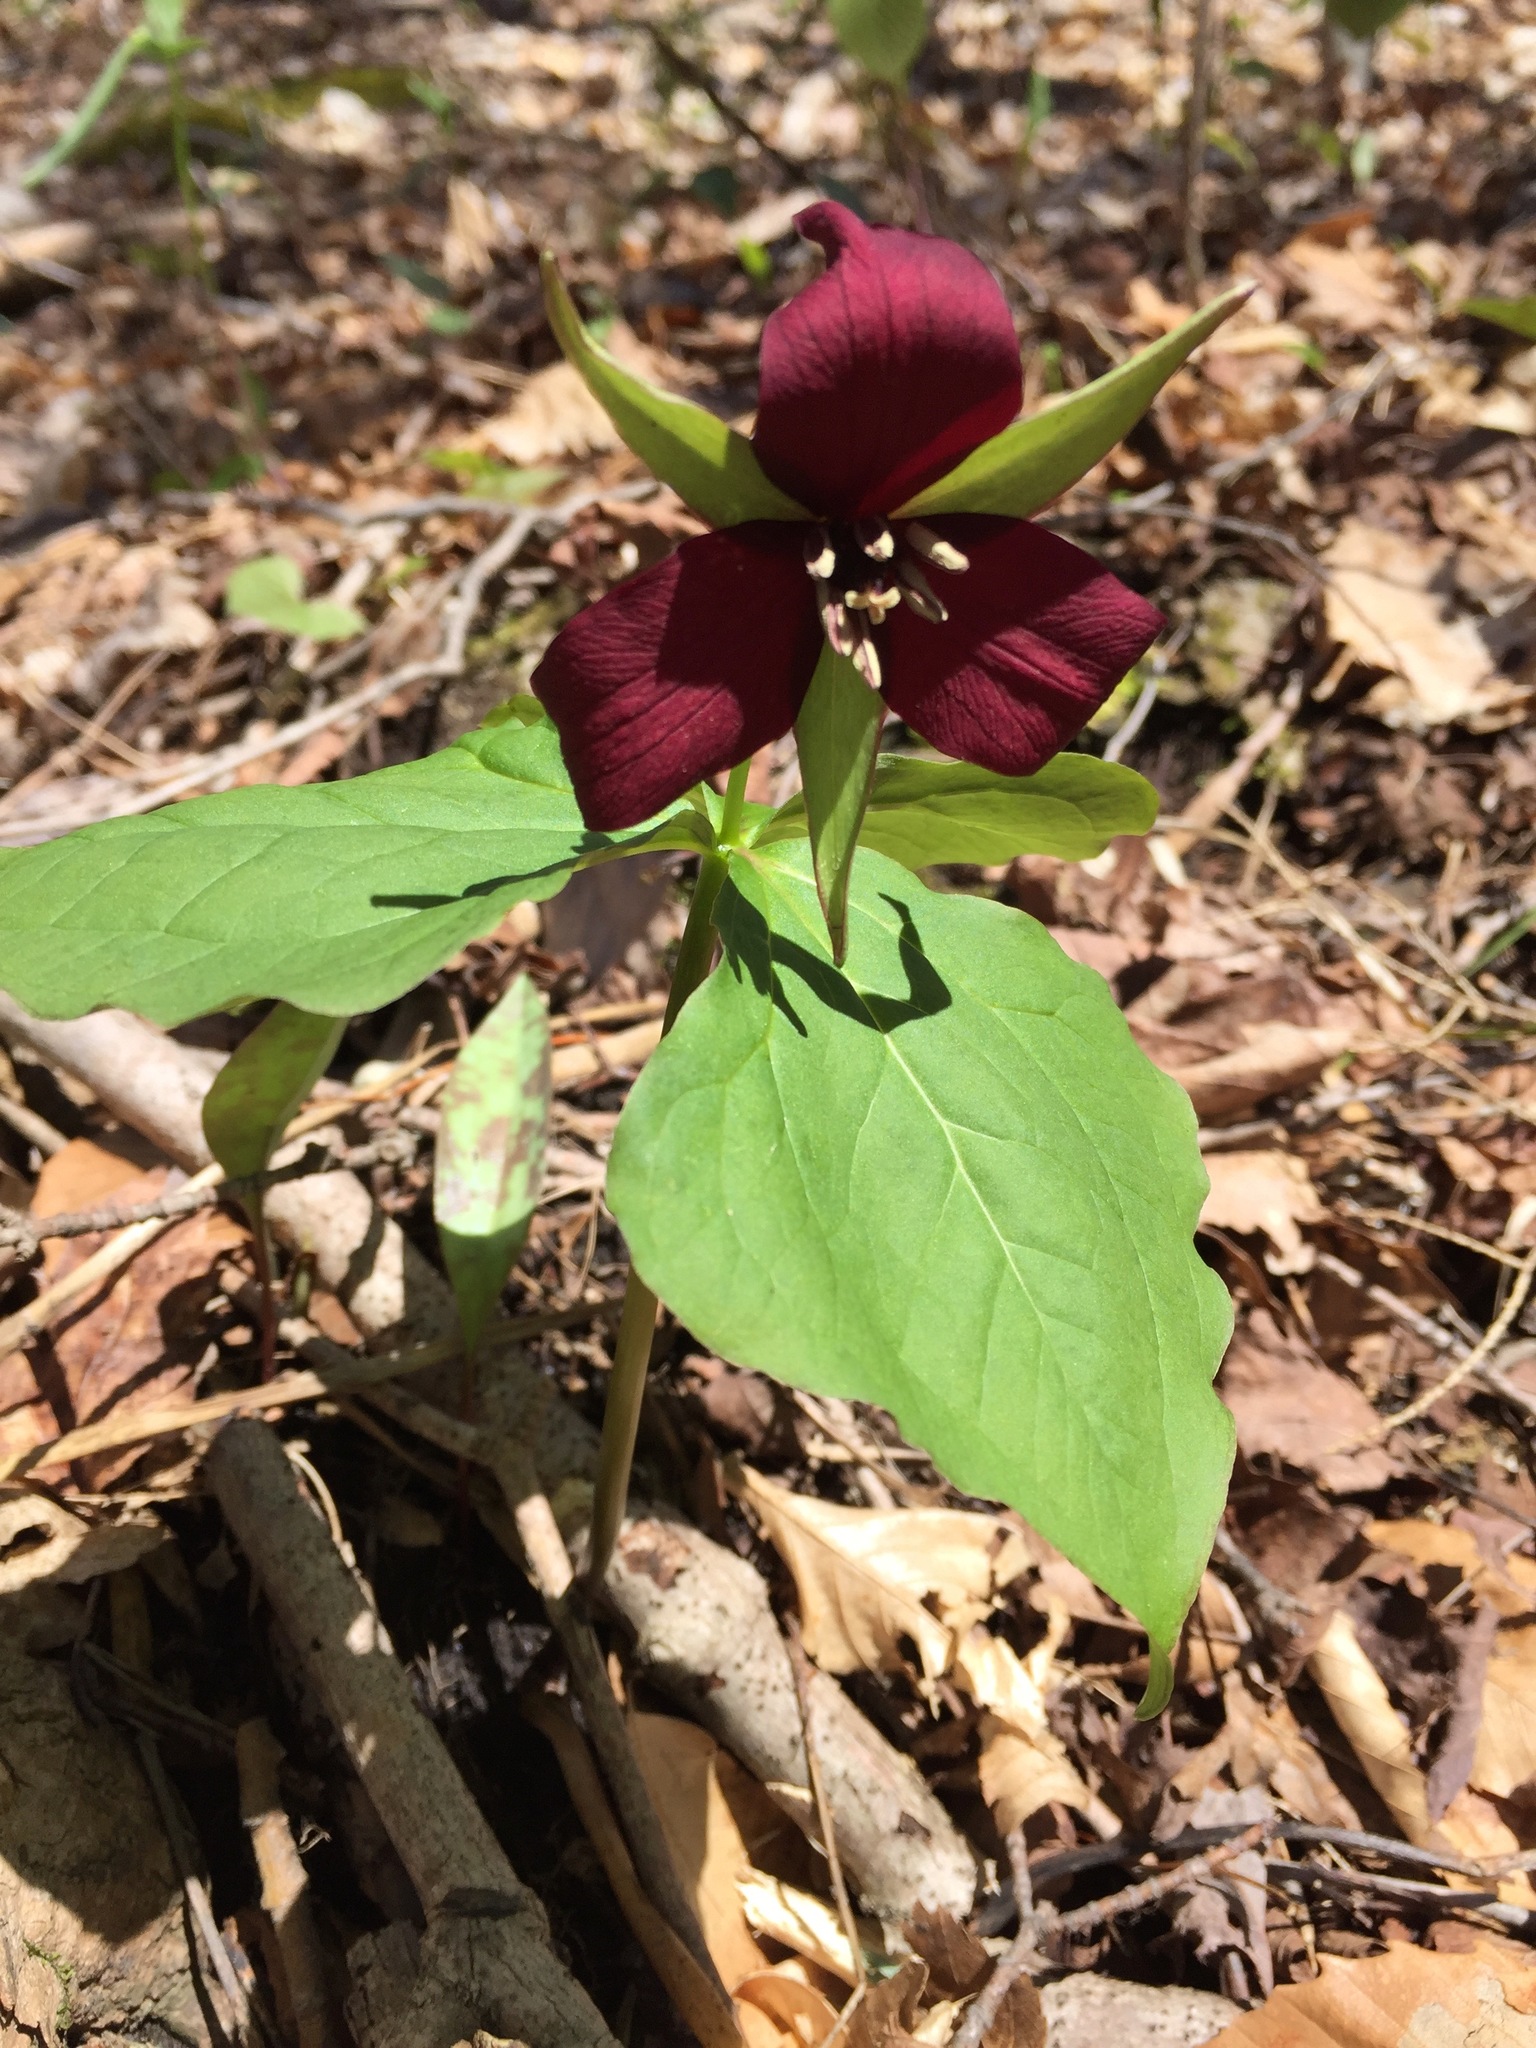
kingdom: Plantae
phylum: Tracheophyta
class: Liliopsida
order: Liliales
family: Melanthiaceae
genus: Trillium
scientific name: Trillium erectum
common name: Purple trillium
